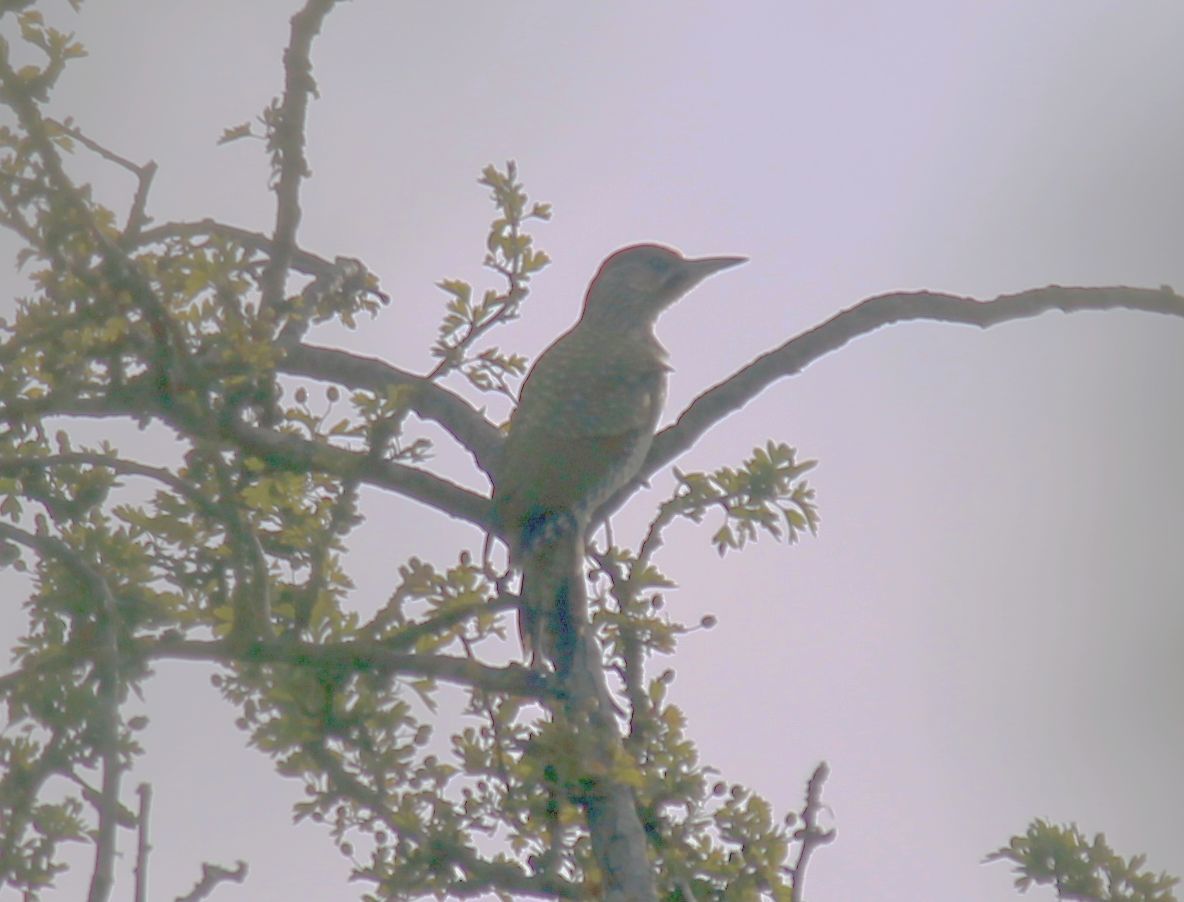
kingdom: Animalia
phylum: Chordata
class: Aves
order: Piciformes
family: Picidae
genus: Picus
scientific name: Picus viridis
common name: European green woodpecker
